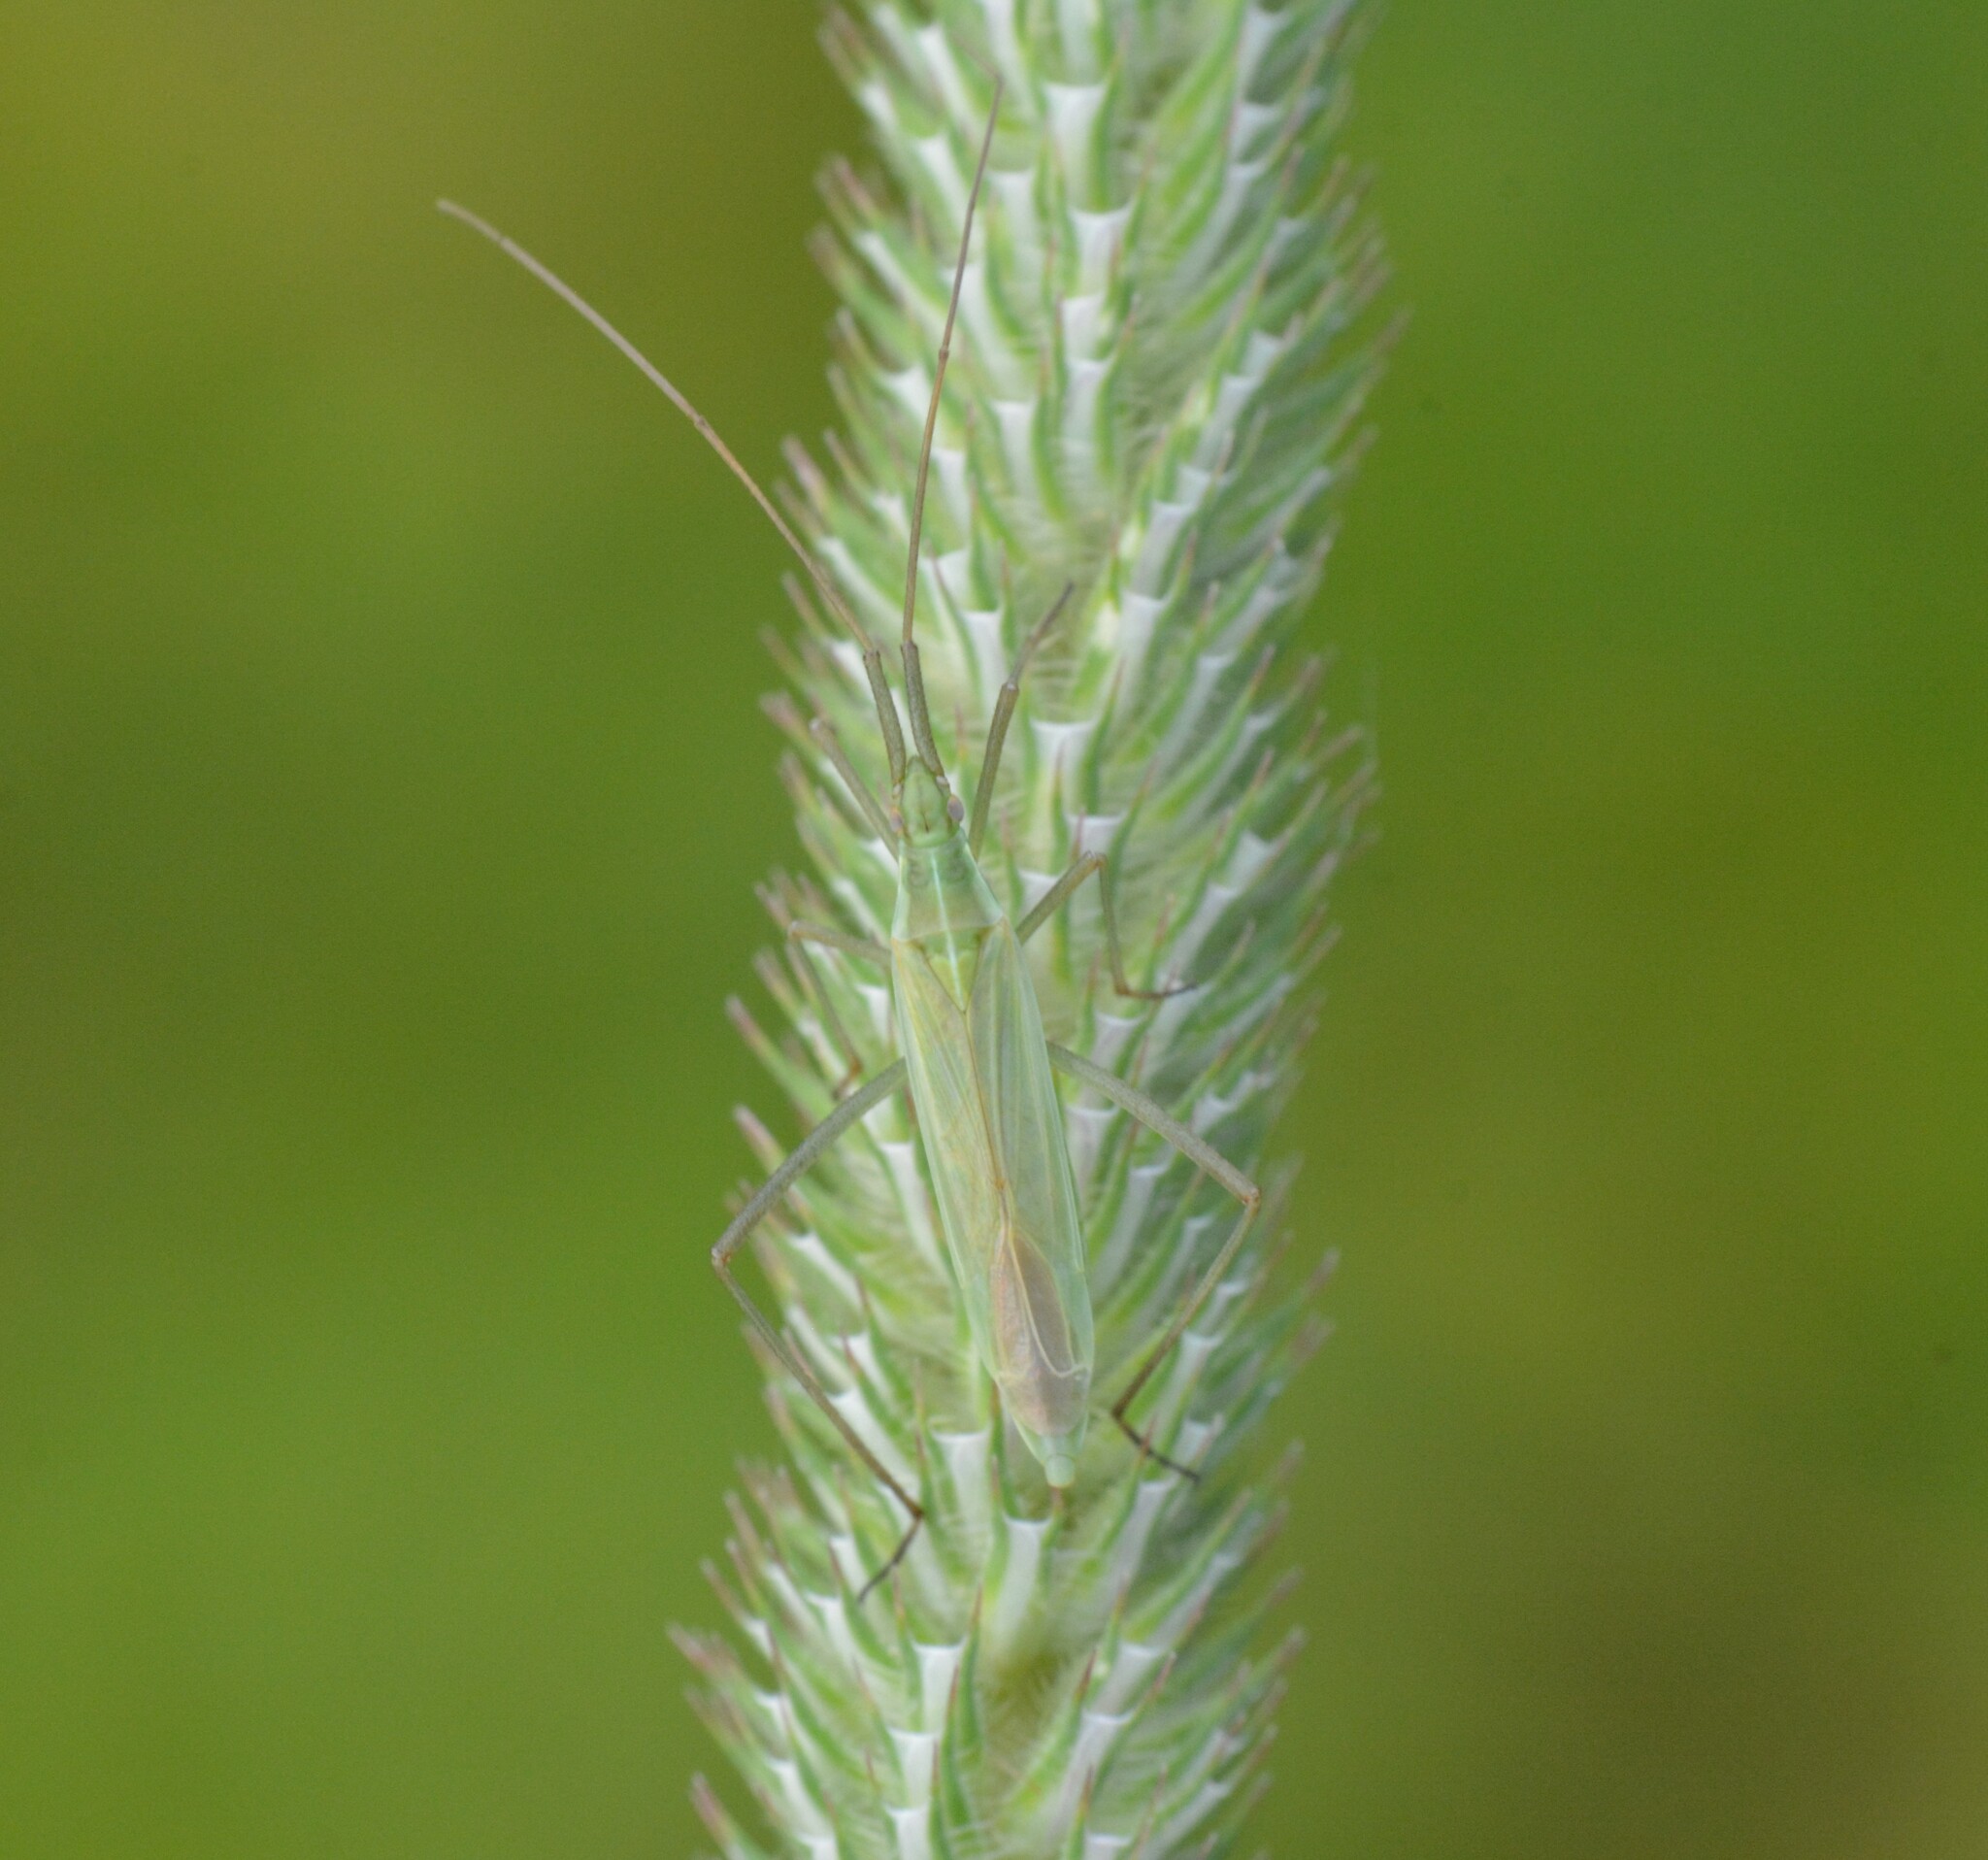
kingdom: Animalia
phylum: Arthropoda
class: Insecta
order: Hemiptera
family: Miridae
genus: Megaloceroea
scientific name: Megaloceroea recticornis
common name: Plant bug
